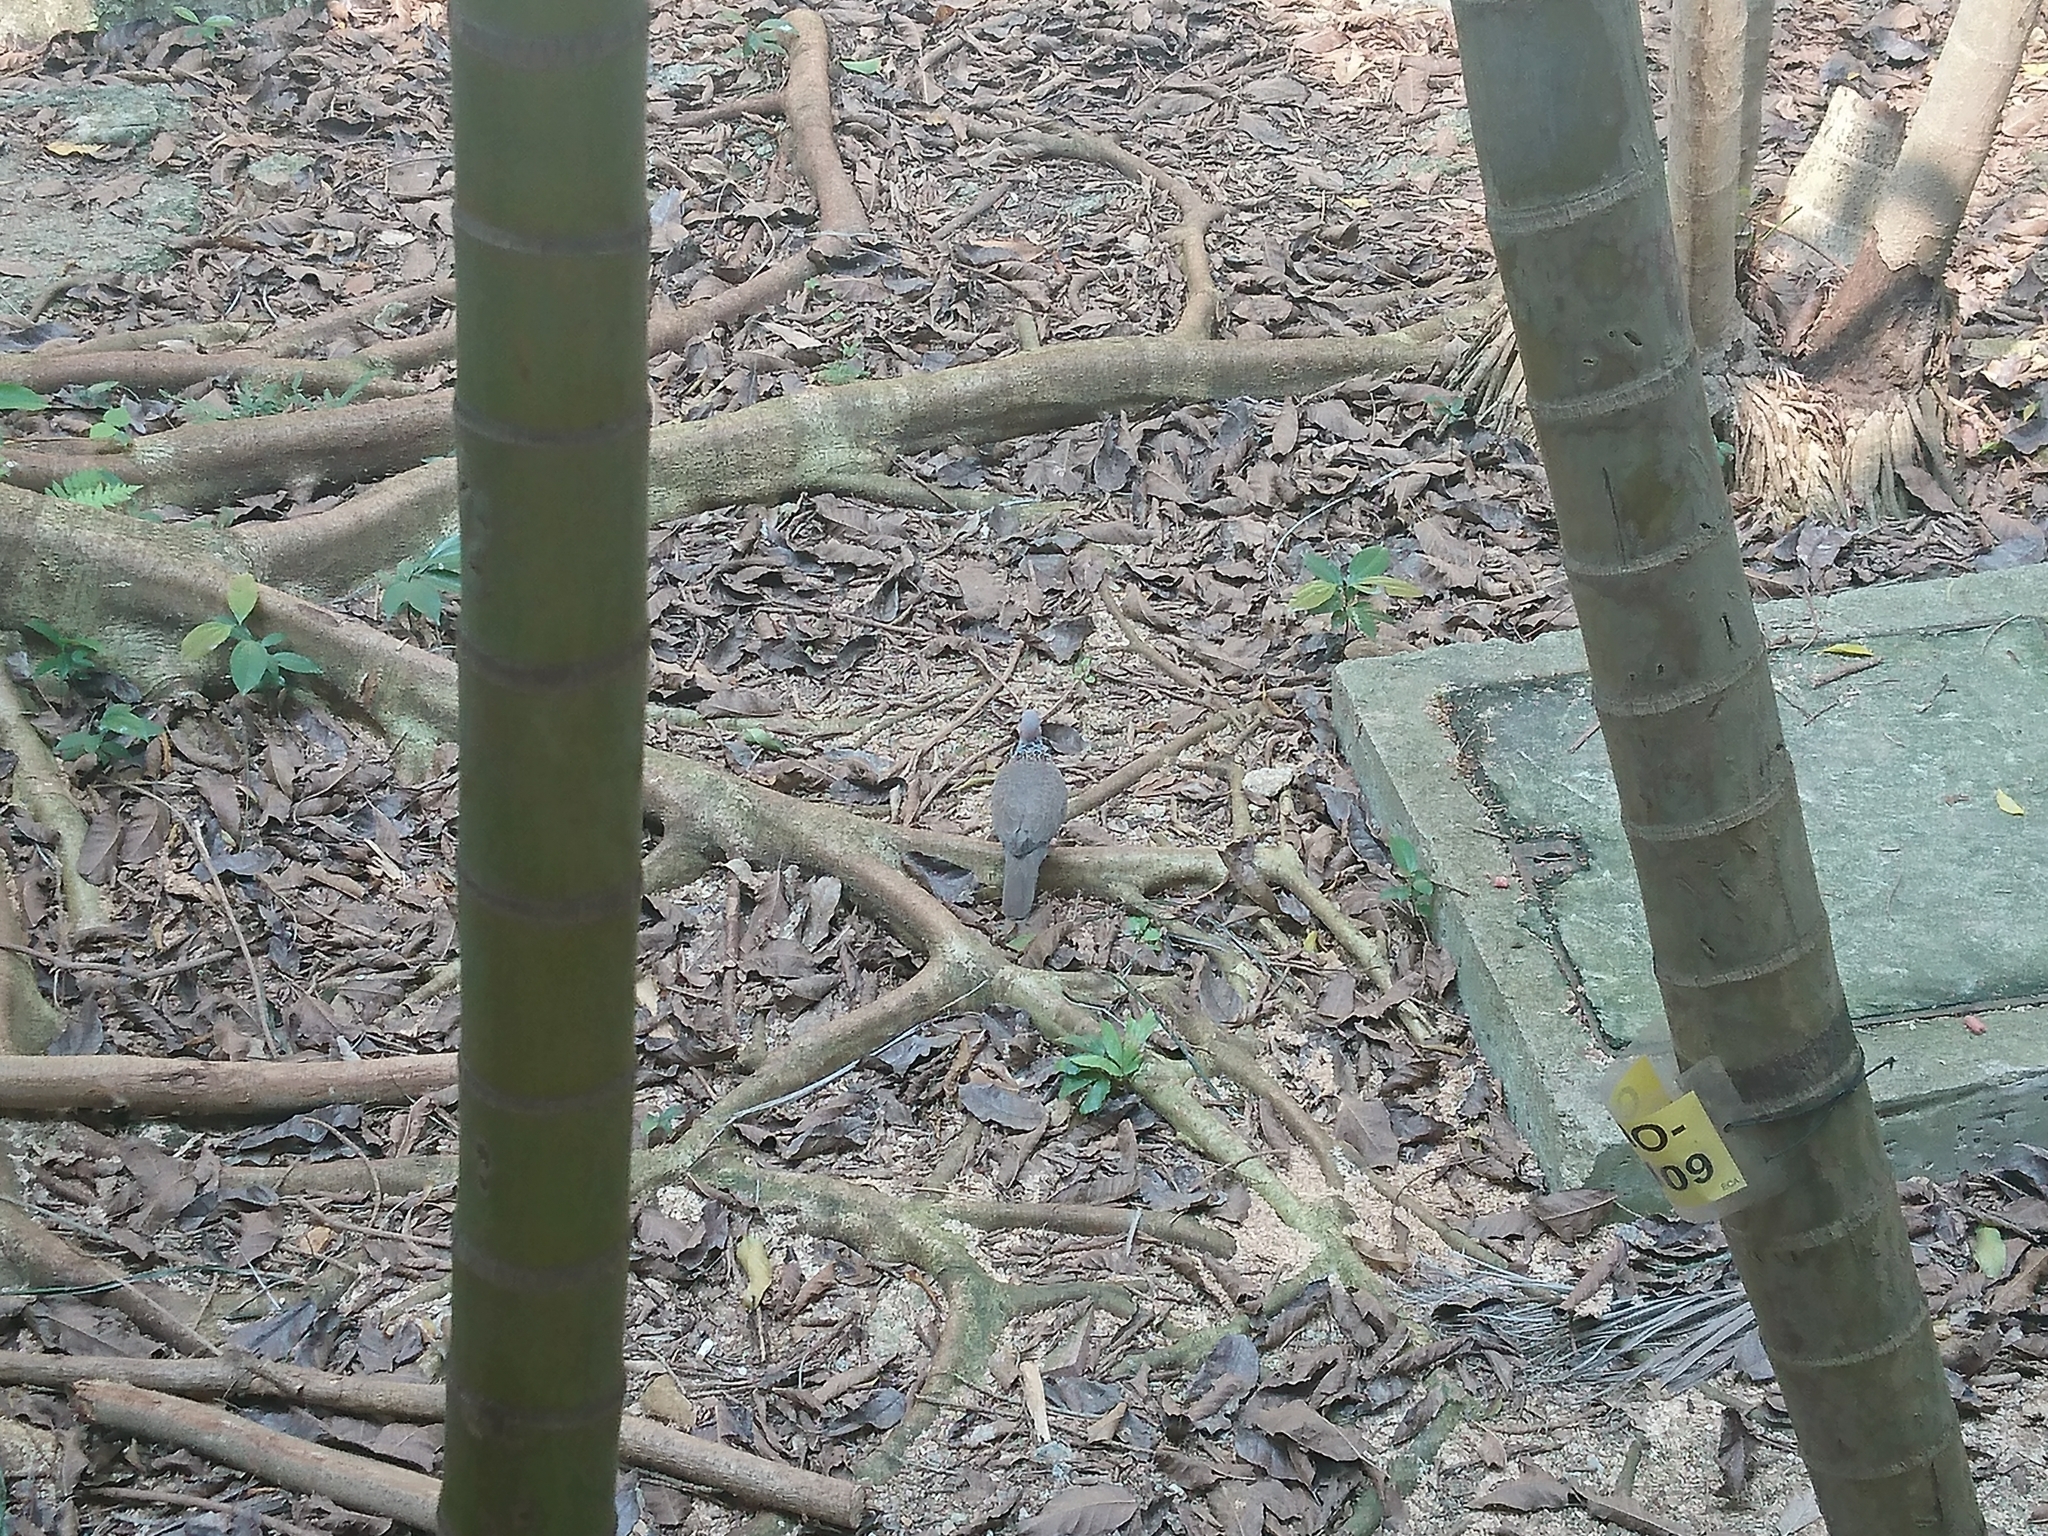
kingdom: Animalia
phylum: Chordata
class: Aves
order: Columbiformes
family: Columbidae
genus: Spilopelia
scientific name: Spilopelia chinensis
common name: Spotted dove
